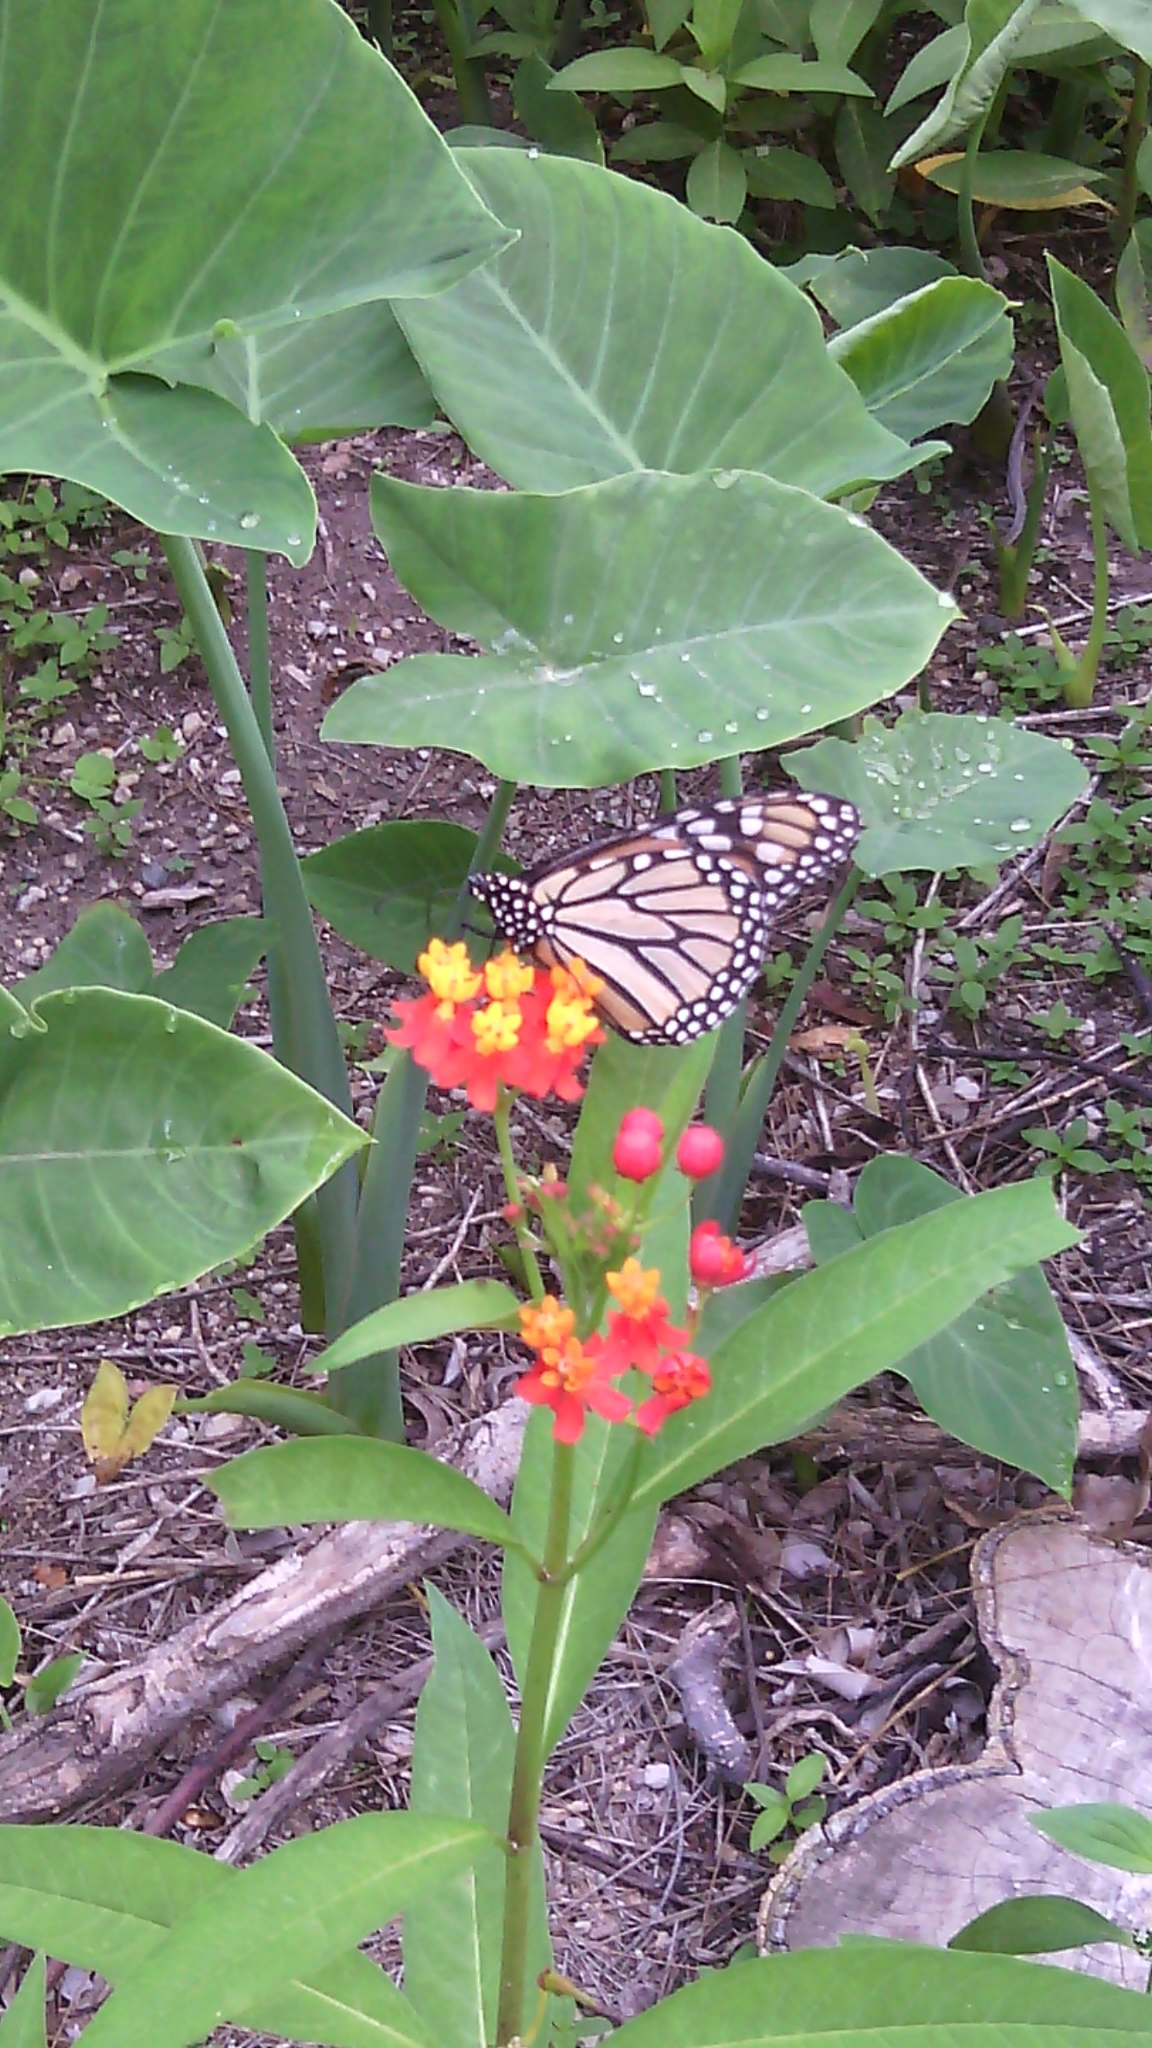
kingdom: Animalia
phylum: Arthropoda
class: Insecta
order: Lepidoptera
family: Nymphalidae
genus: Danaus
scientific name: Danaus plexippus
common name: Monarch
